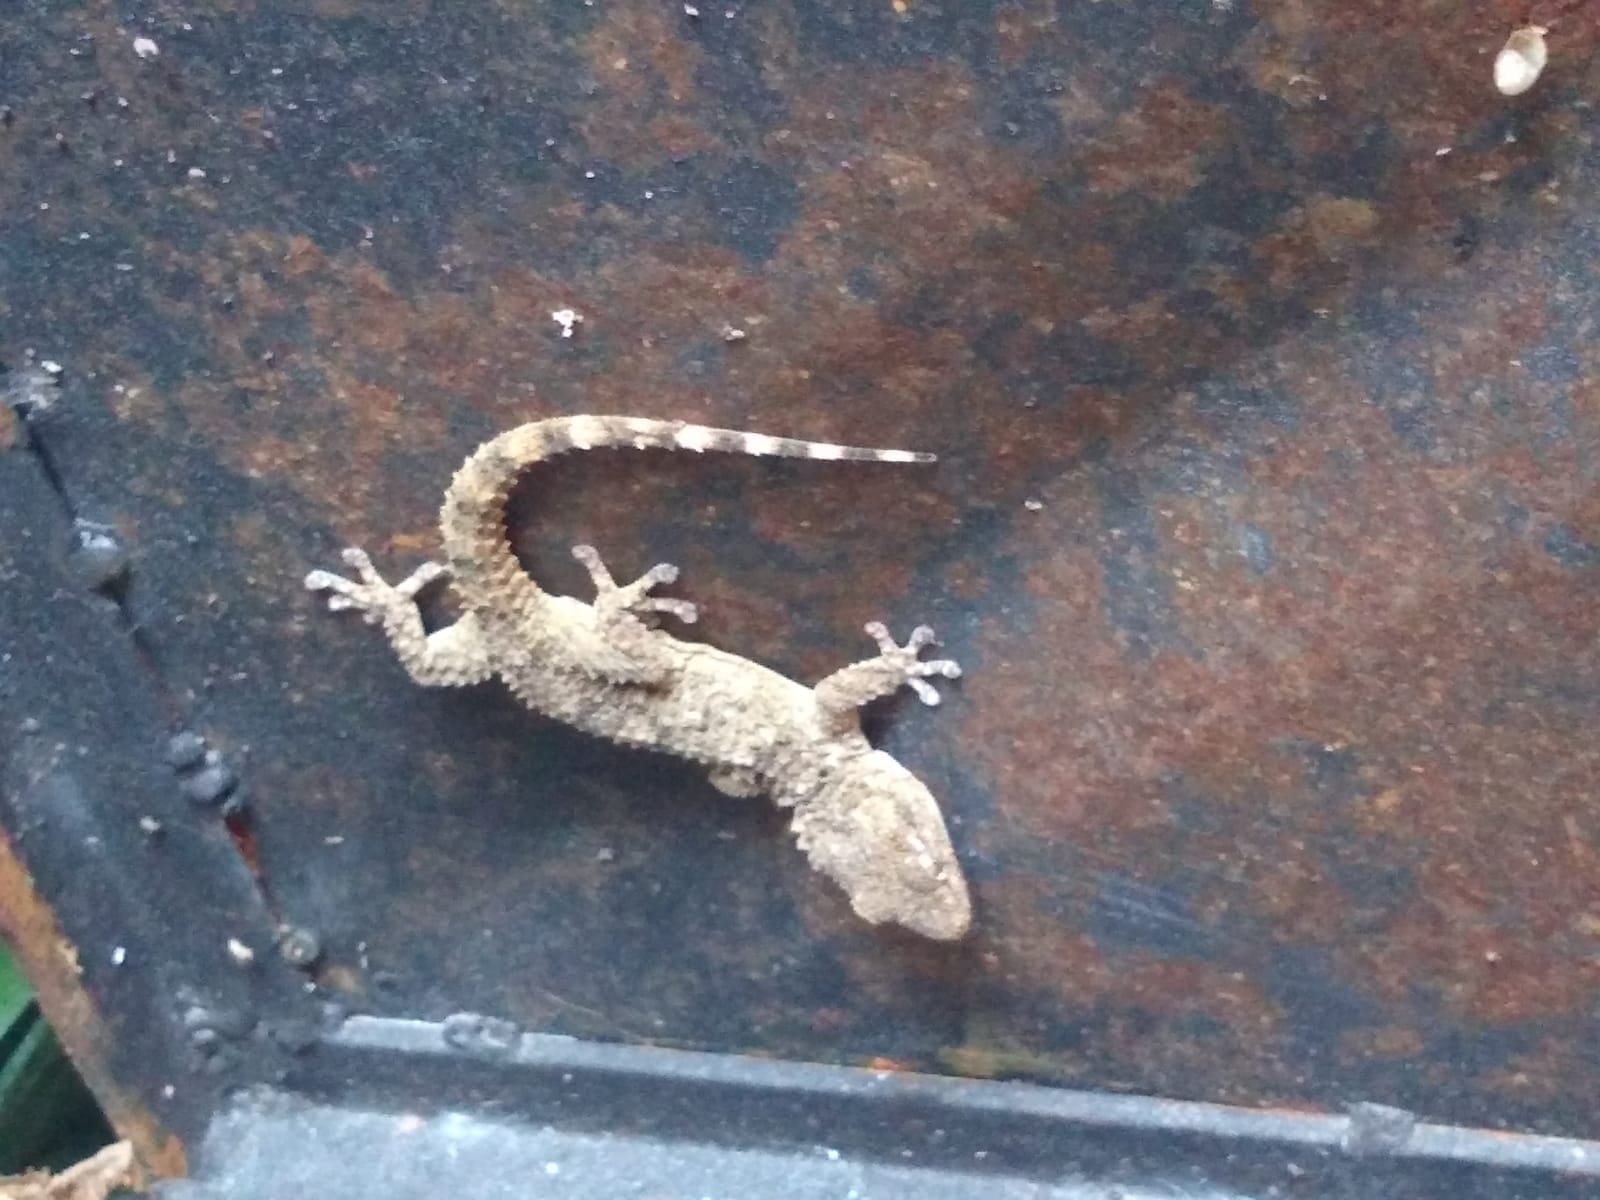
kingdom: Animalia
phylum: Chordata
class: Squamata
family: Phyllodactylidae
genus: Tarentola
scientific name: Tarentola mauritanica
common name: Moorish gecko
